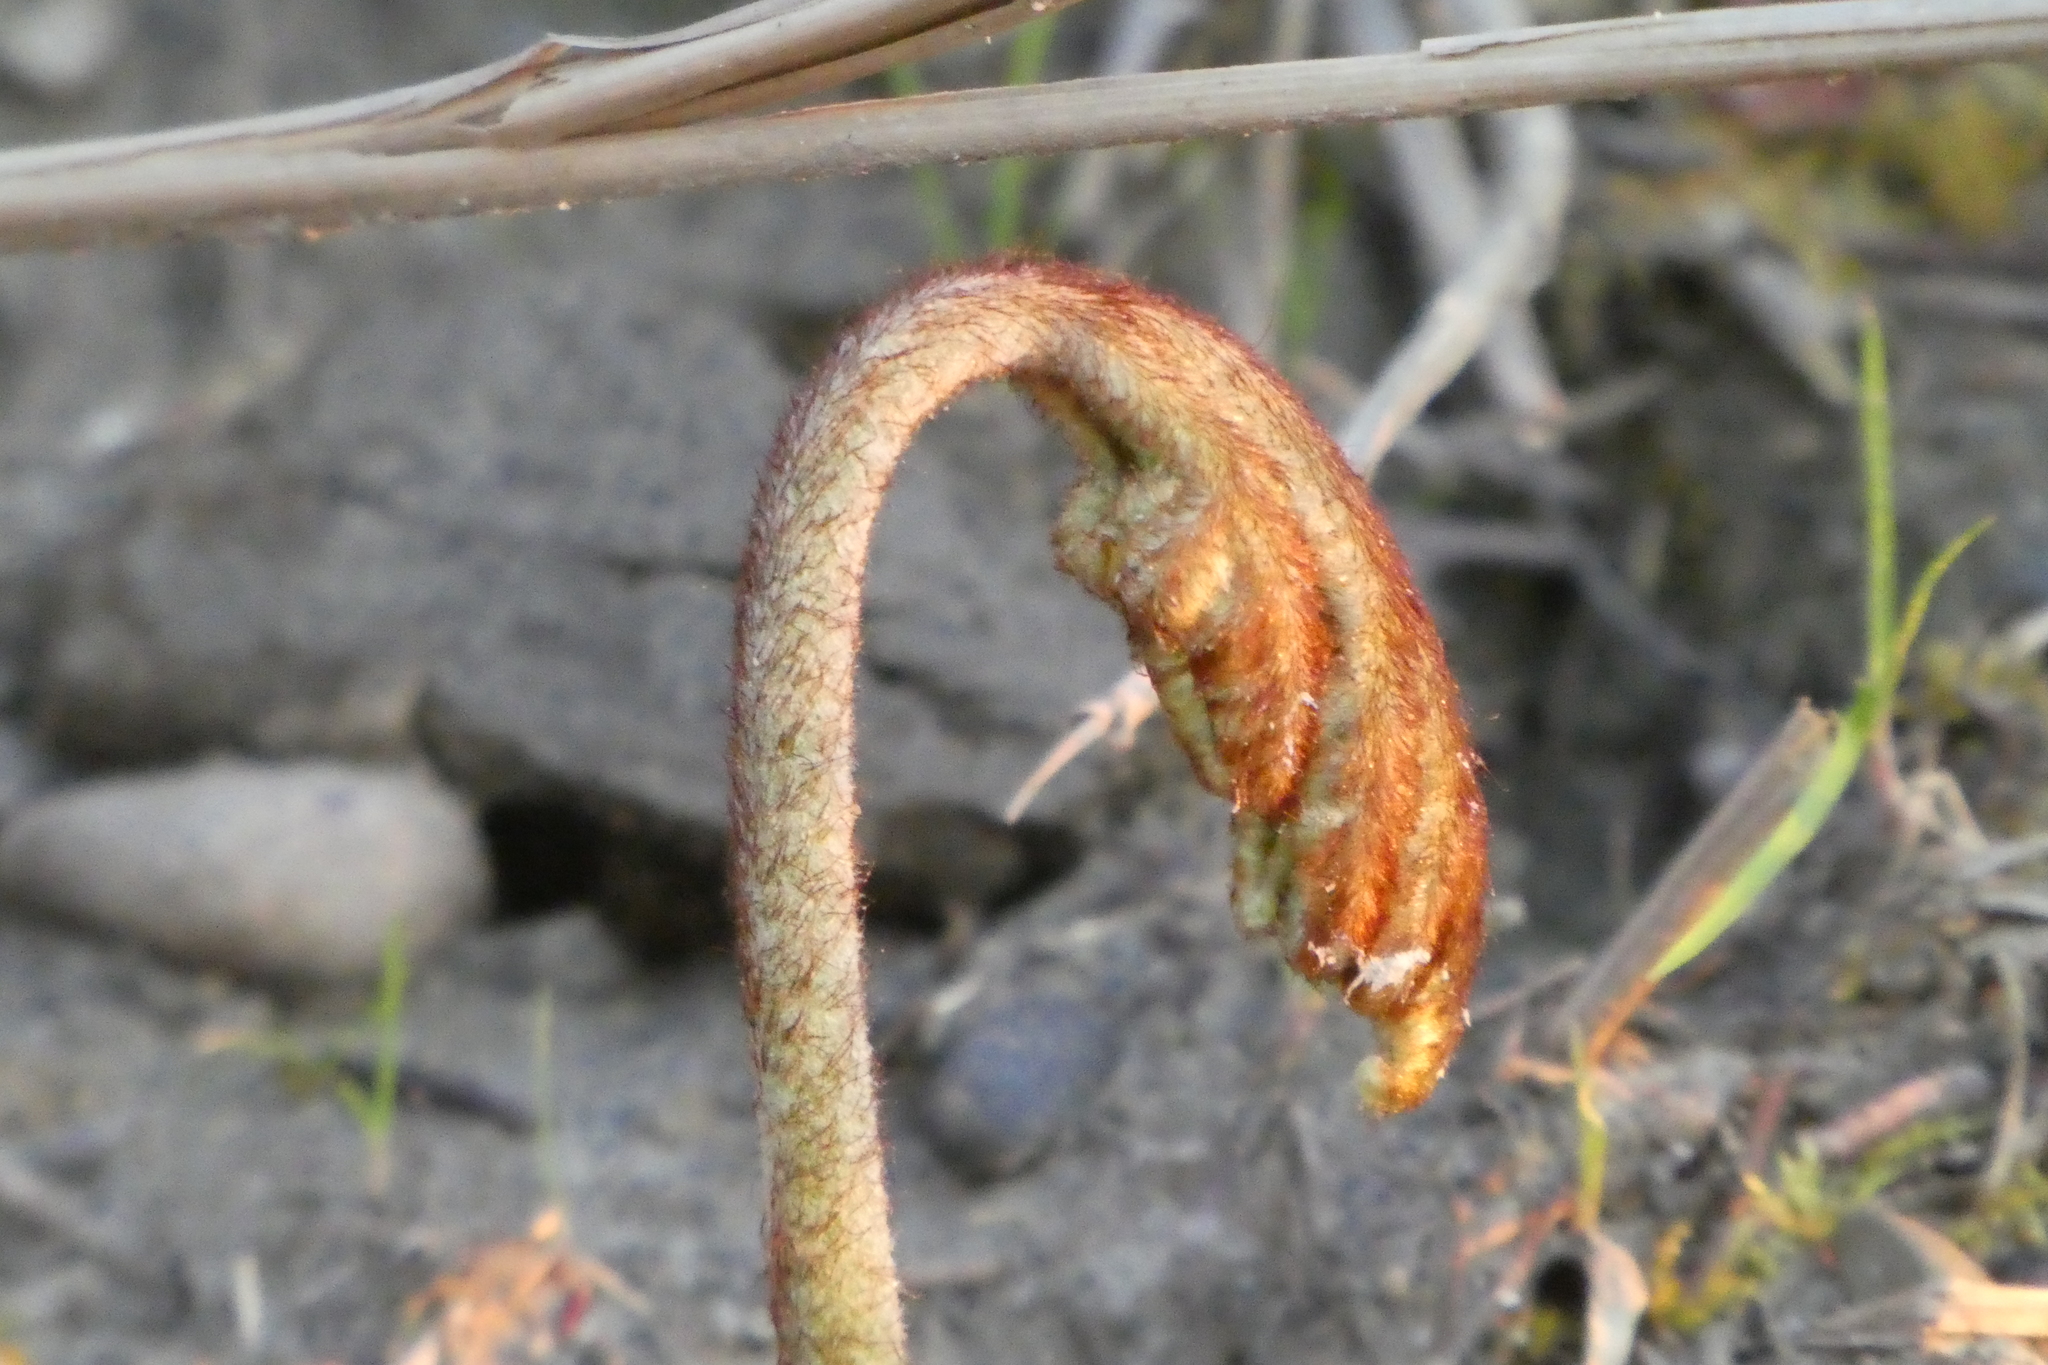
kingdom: Plantae
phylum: Tracheophyta
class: Polypodiopsida
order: Polypodiales
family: Dennstaedtiaceae
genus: Pteridium
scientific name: Pteridium aquilinum
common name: Bracken
